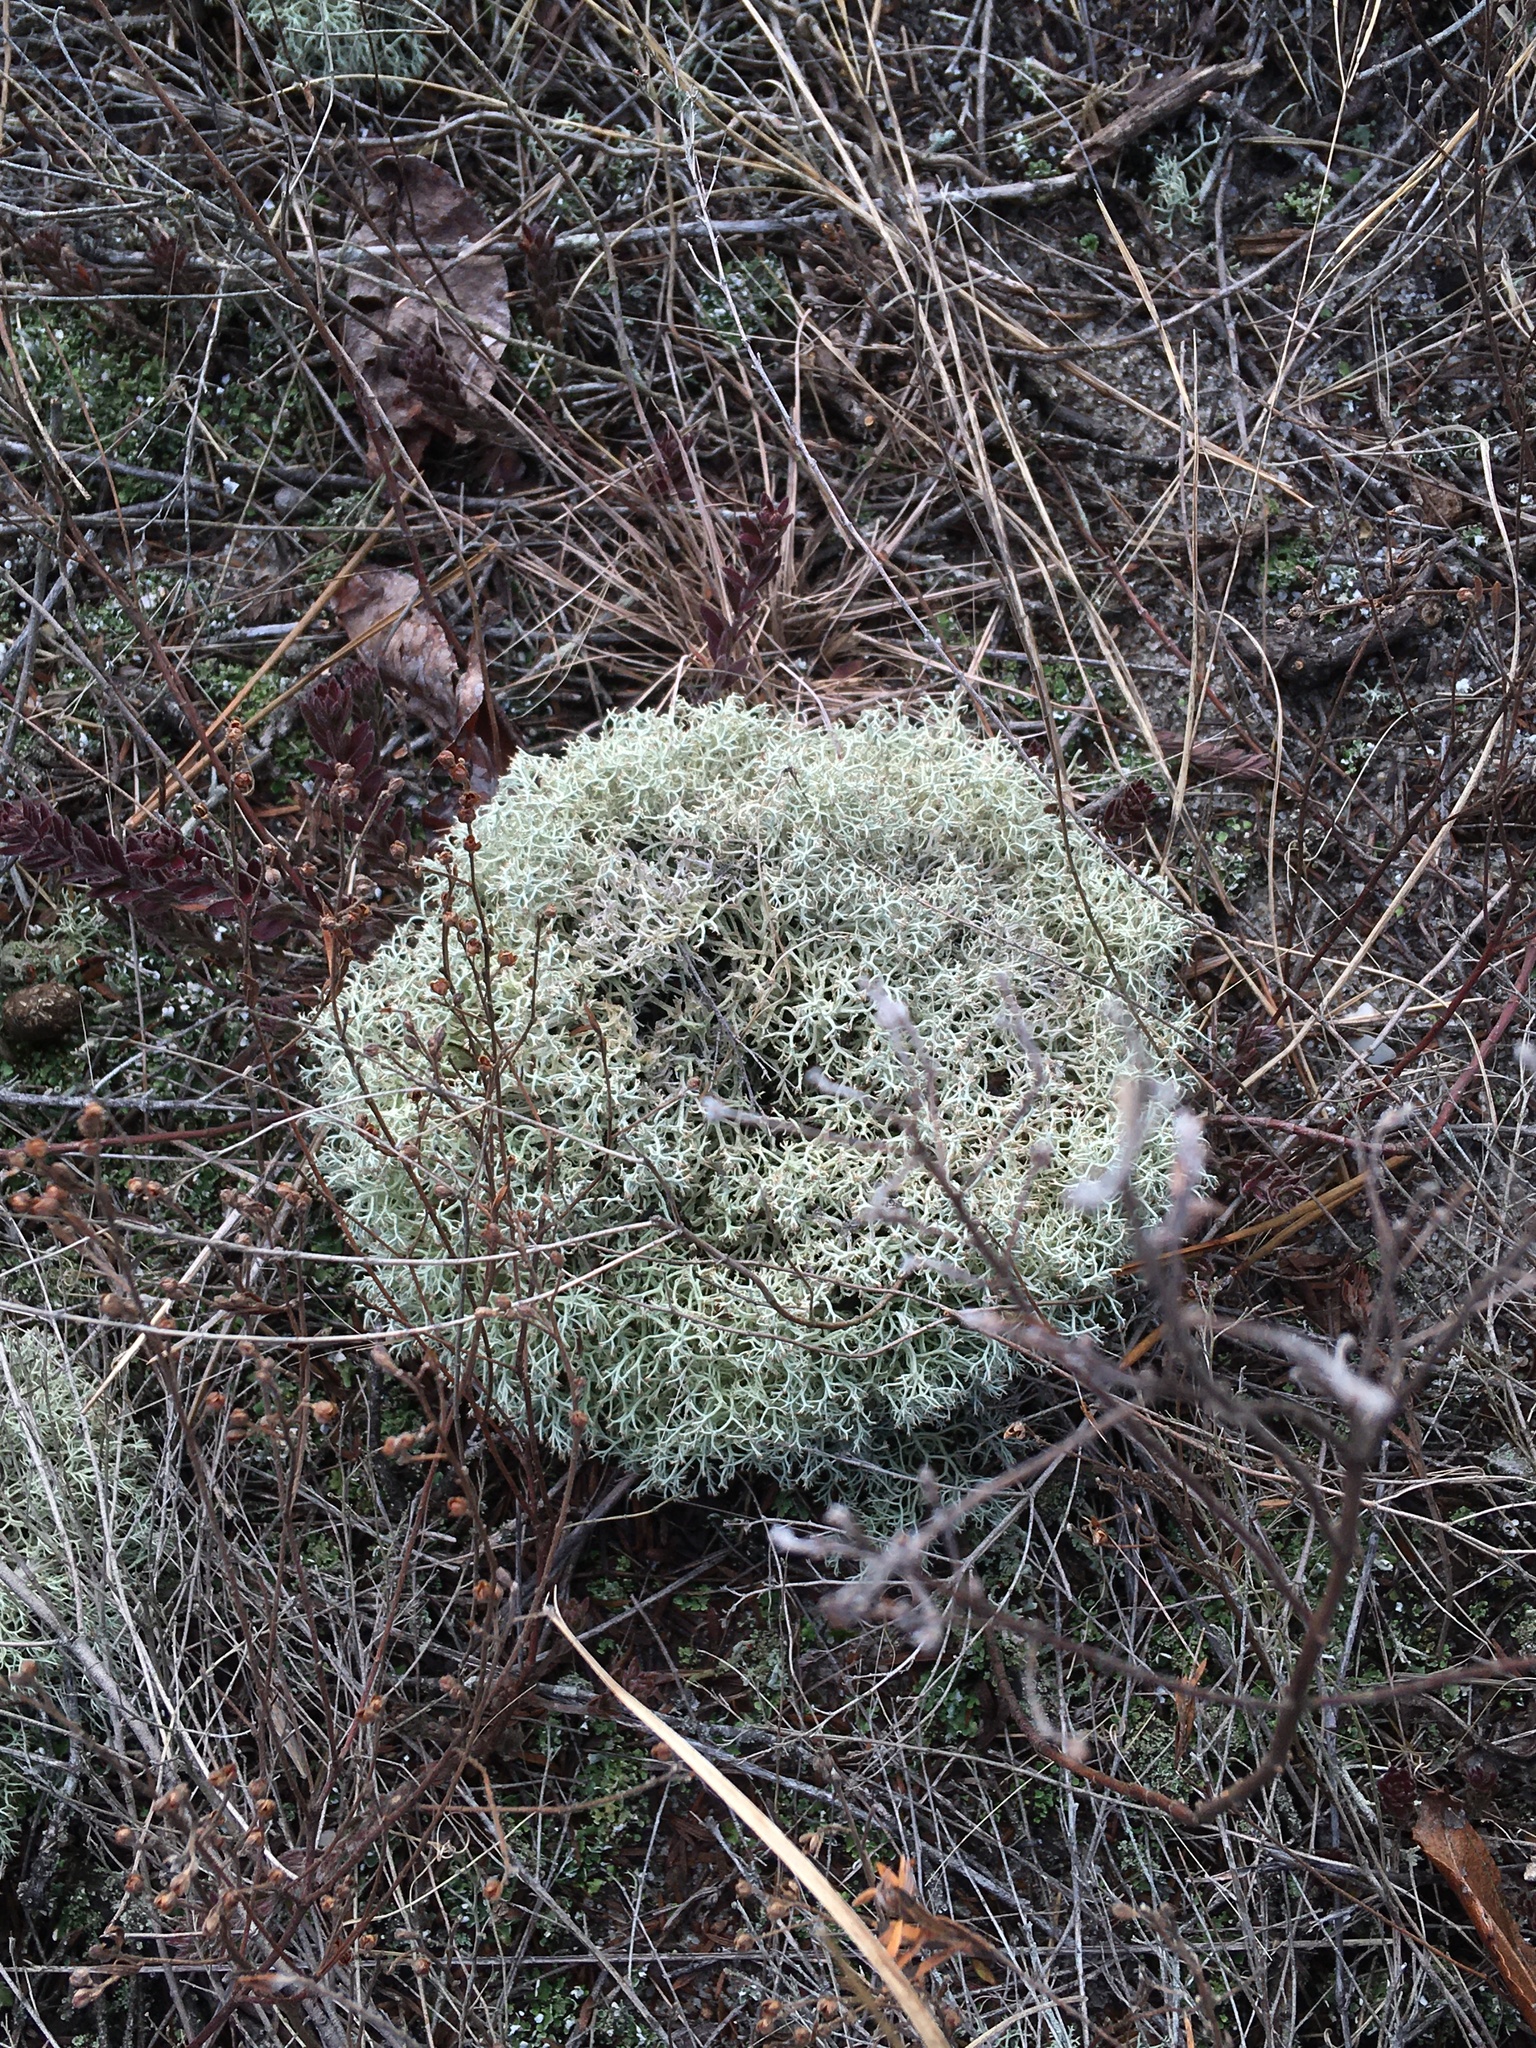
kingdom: Fungi
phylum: Ascomycota
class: Lecanoromycetes
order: Lecanorales
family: Cladoniaceae
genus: Cladonia
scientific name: Cladonia subtenuis
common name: Dixie reindeer lichen
